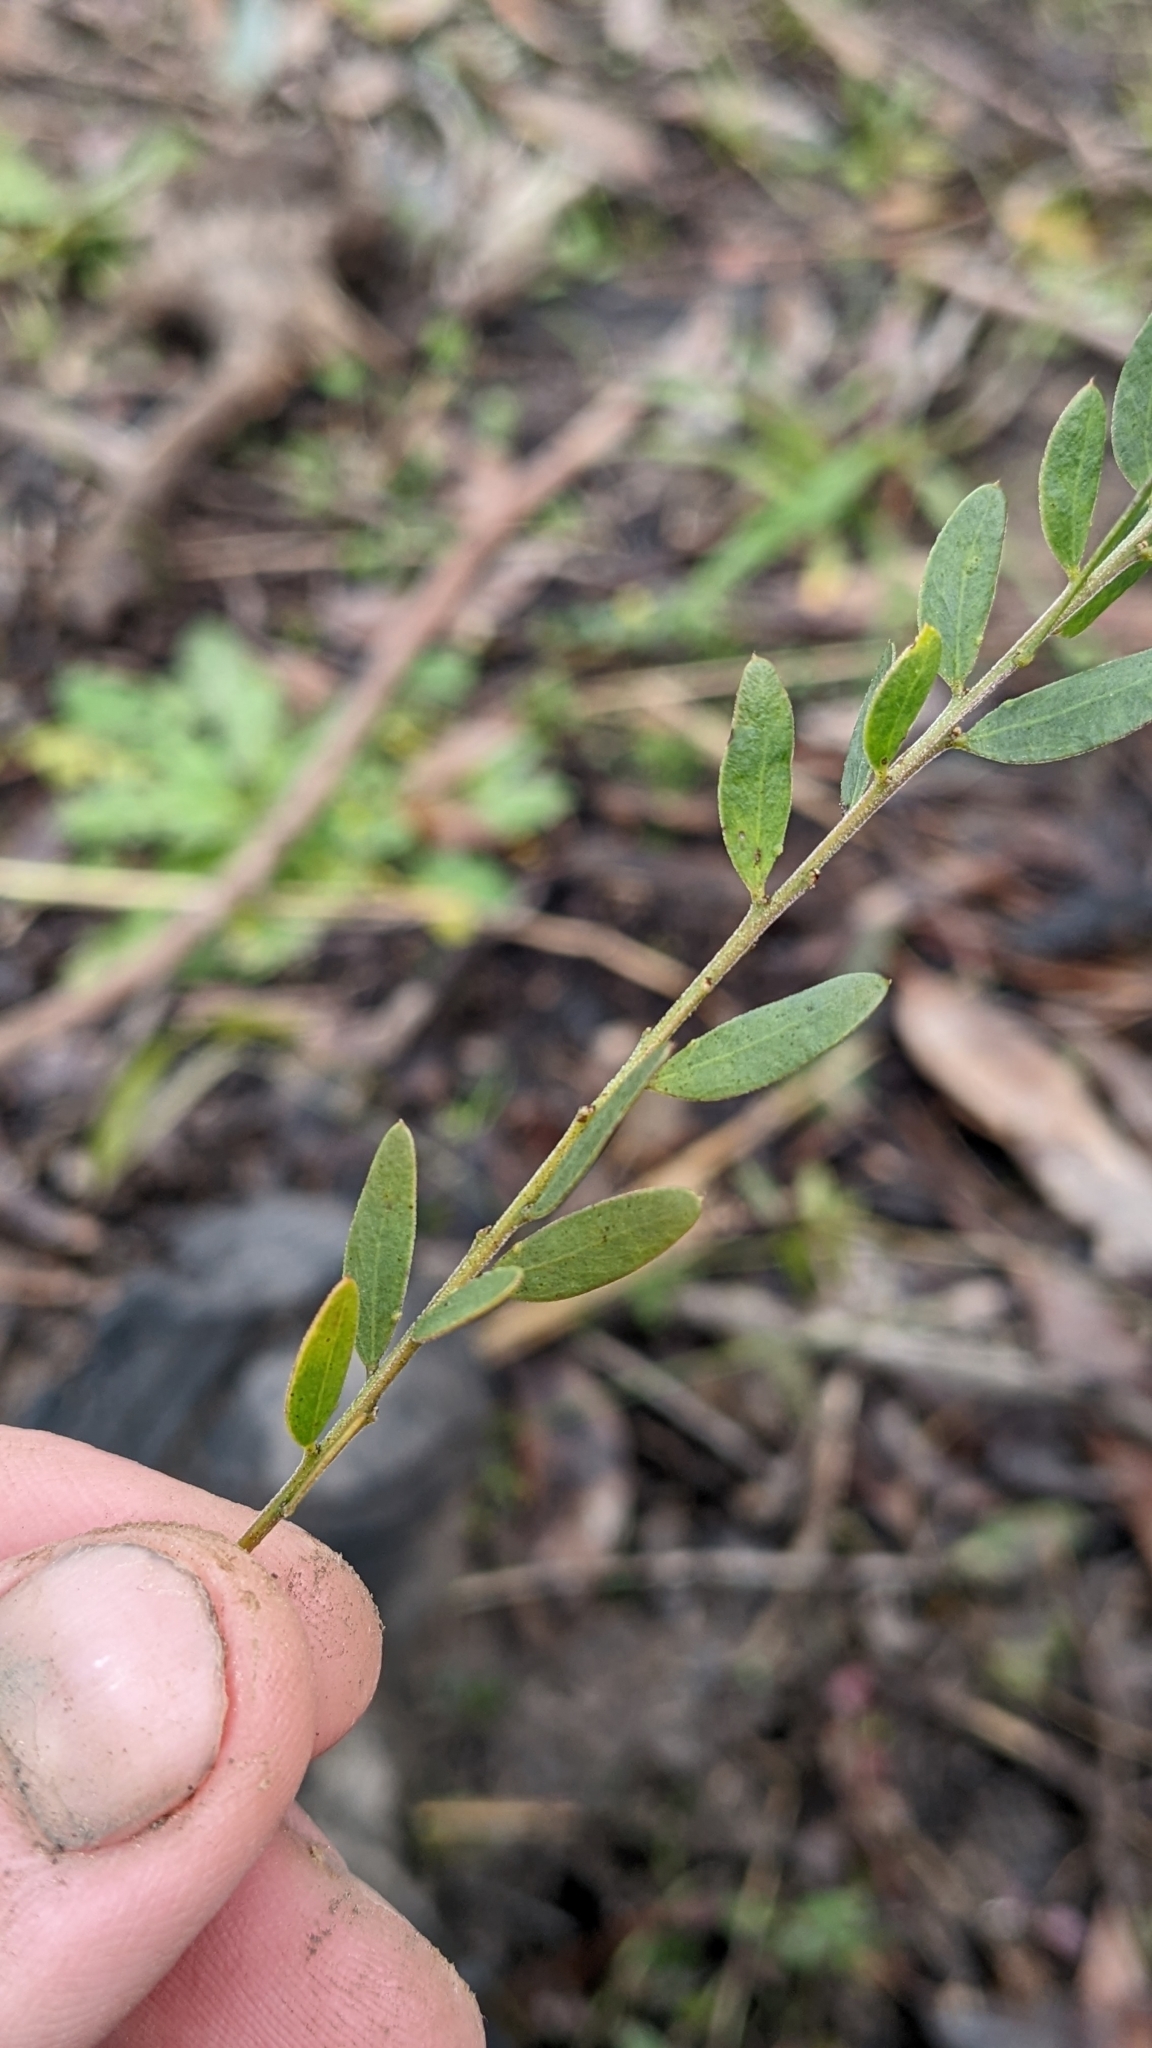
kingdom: Plantae
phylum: Tracheophyta
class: Magnoliopsida
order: Fabales
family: Fabaceae
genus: Acacia
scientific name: Acacia hispidula
